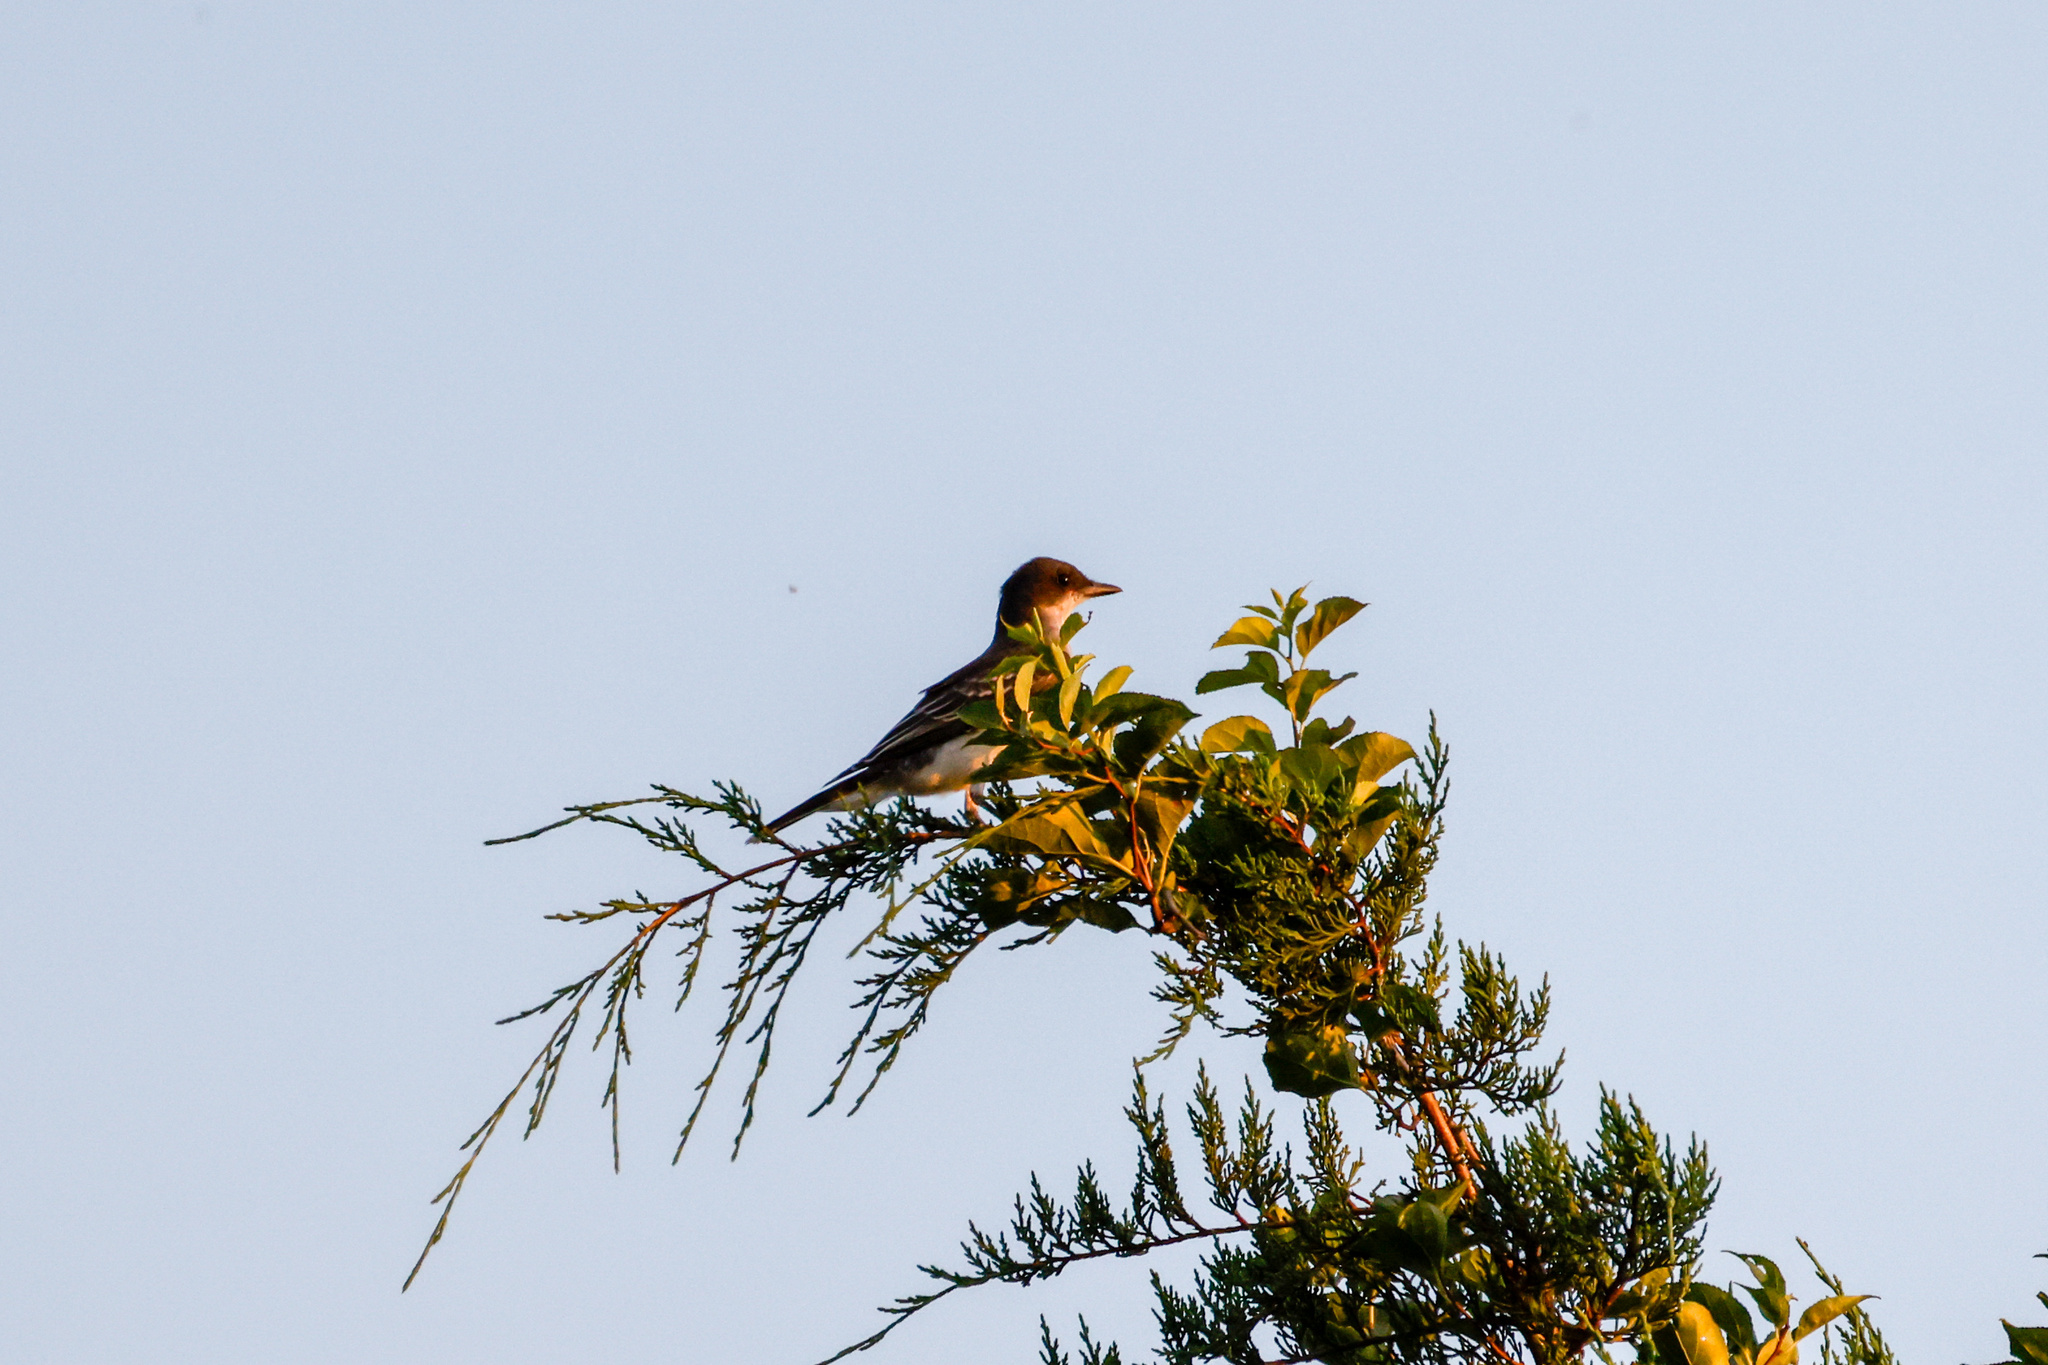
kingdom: Animalia
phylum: Chordata
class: Aves
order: Passeriformes
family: Tyrannidae
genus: Tyrannus
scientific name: Tyrannus tyrannus
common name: Eastern kingbird
